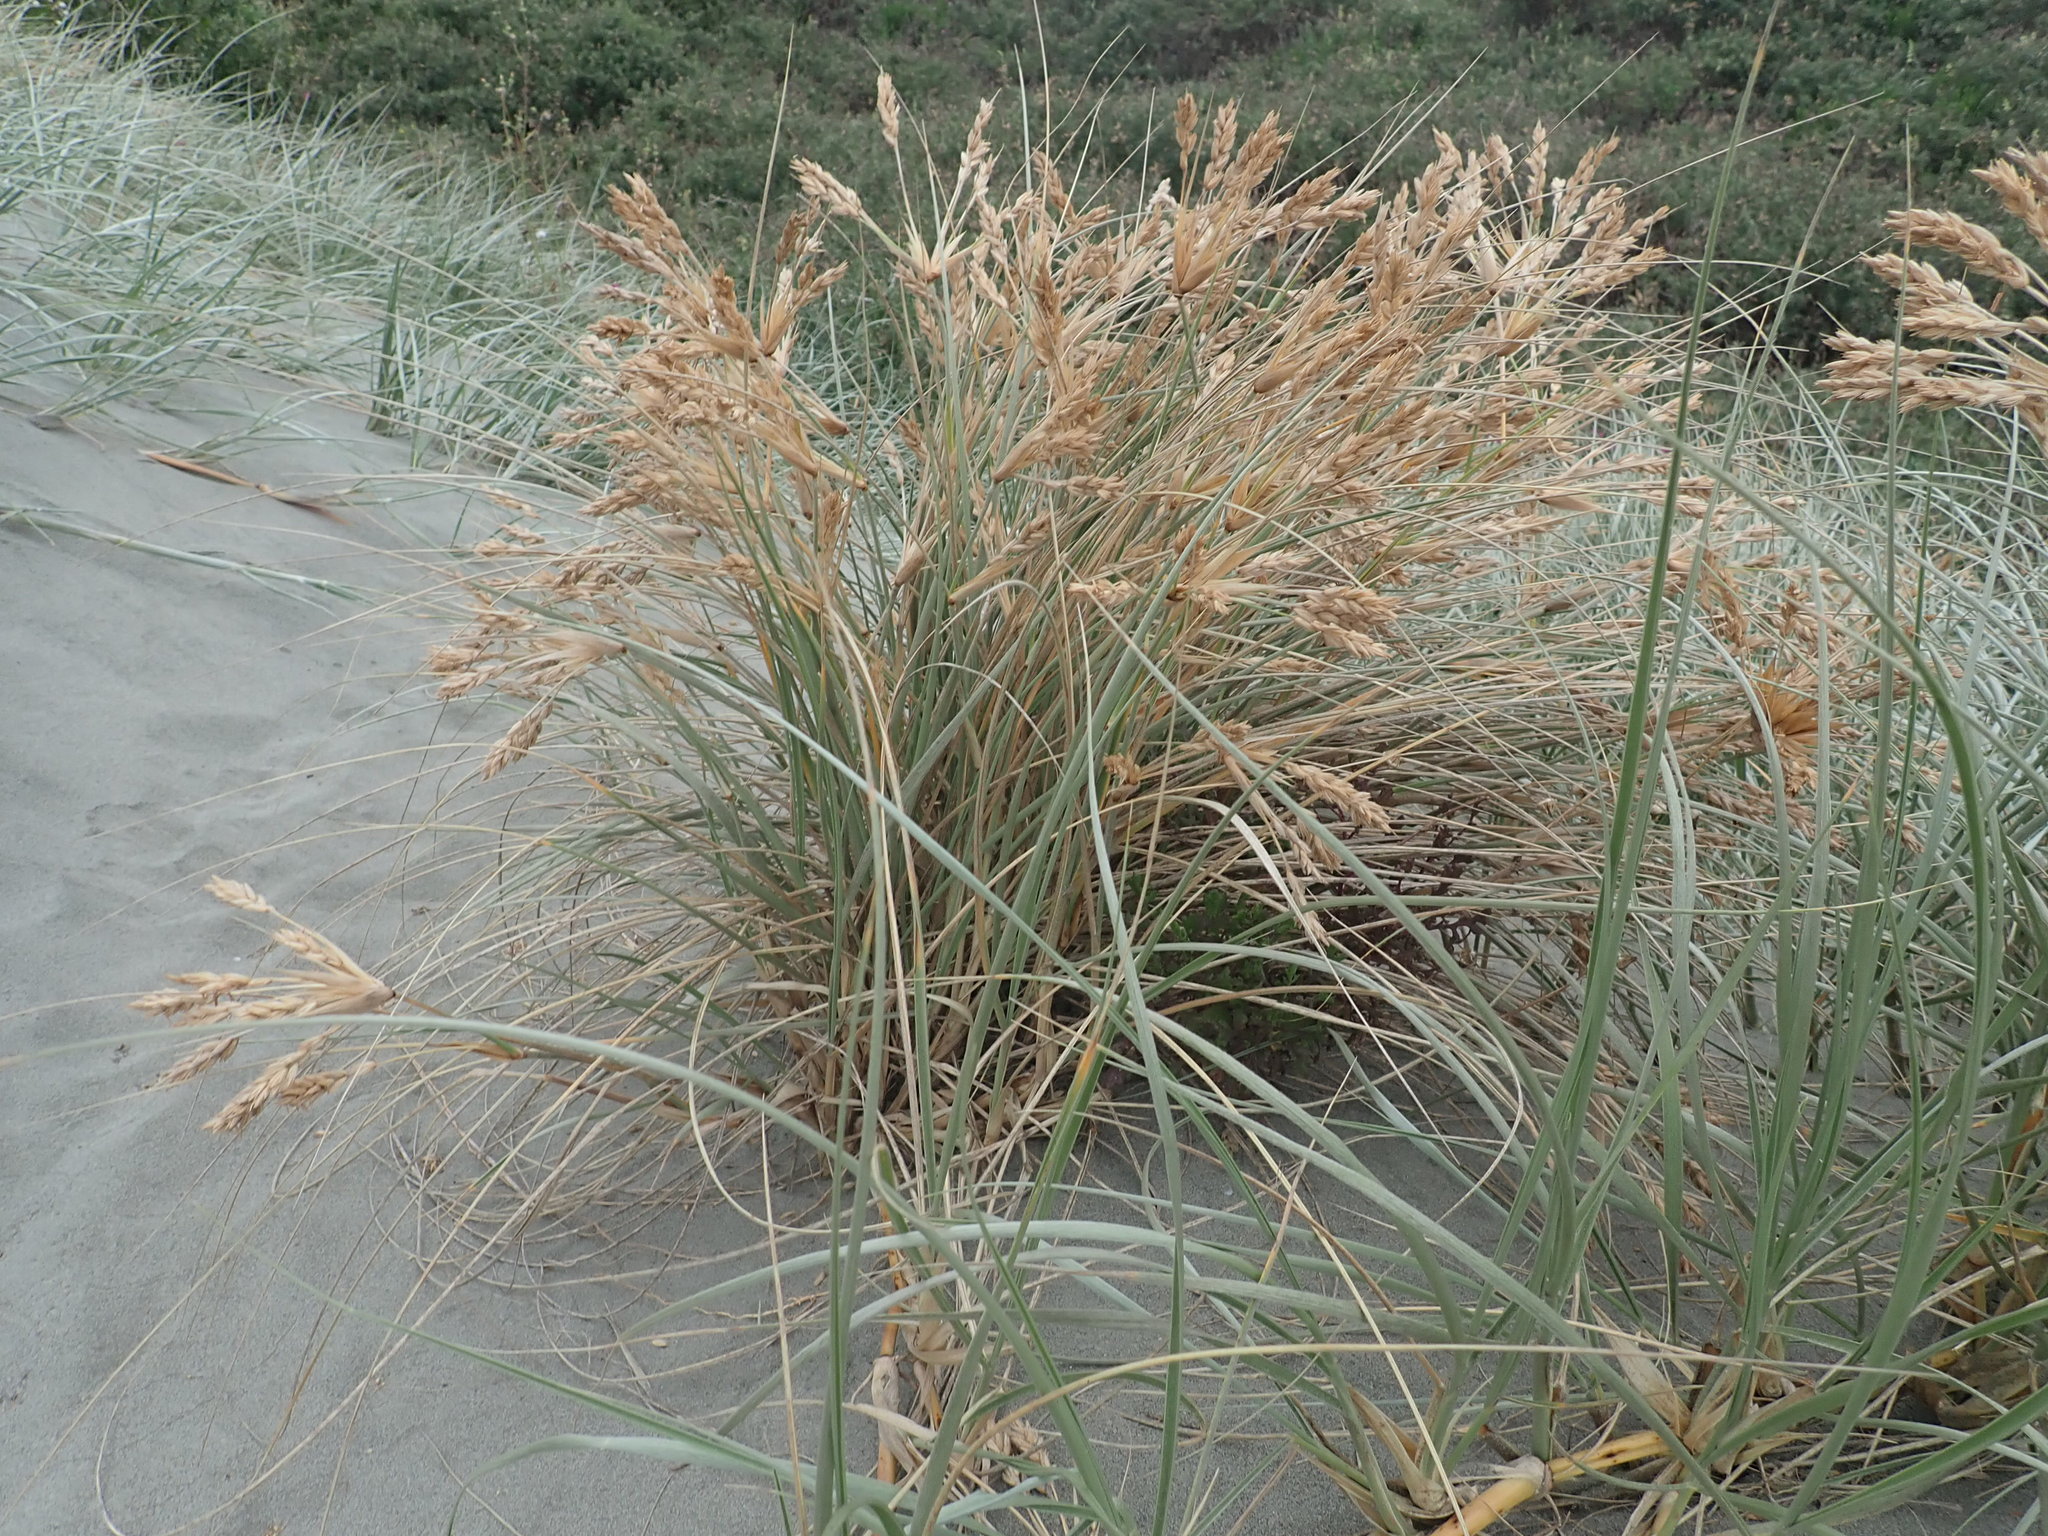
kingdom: Plantae
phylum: Tracheophyta
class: Liliopsida
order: Poales
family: Poaceae
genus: Spinifex
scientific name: Spinifex sericeus
